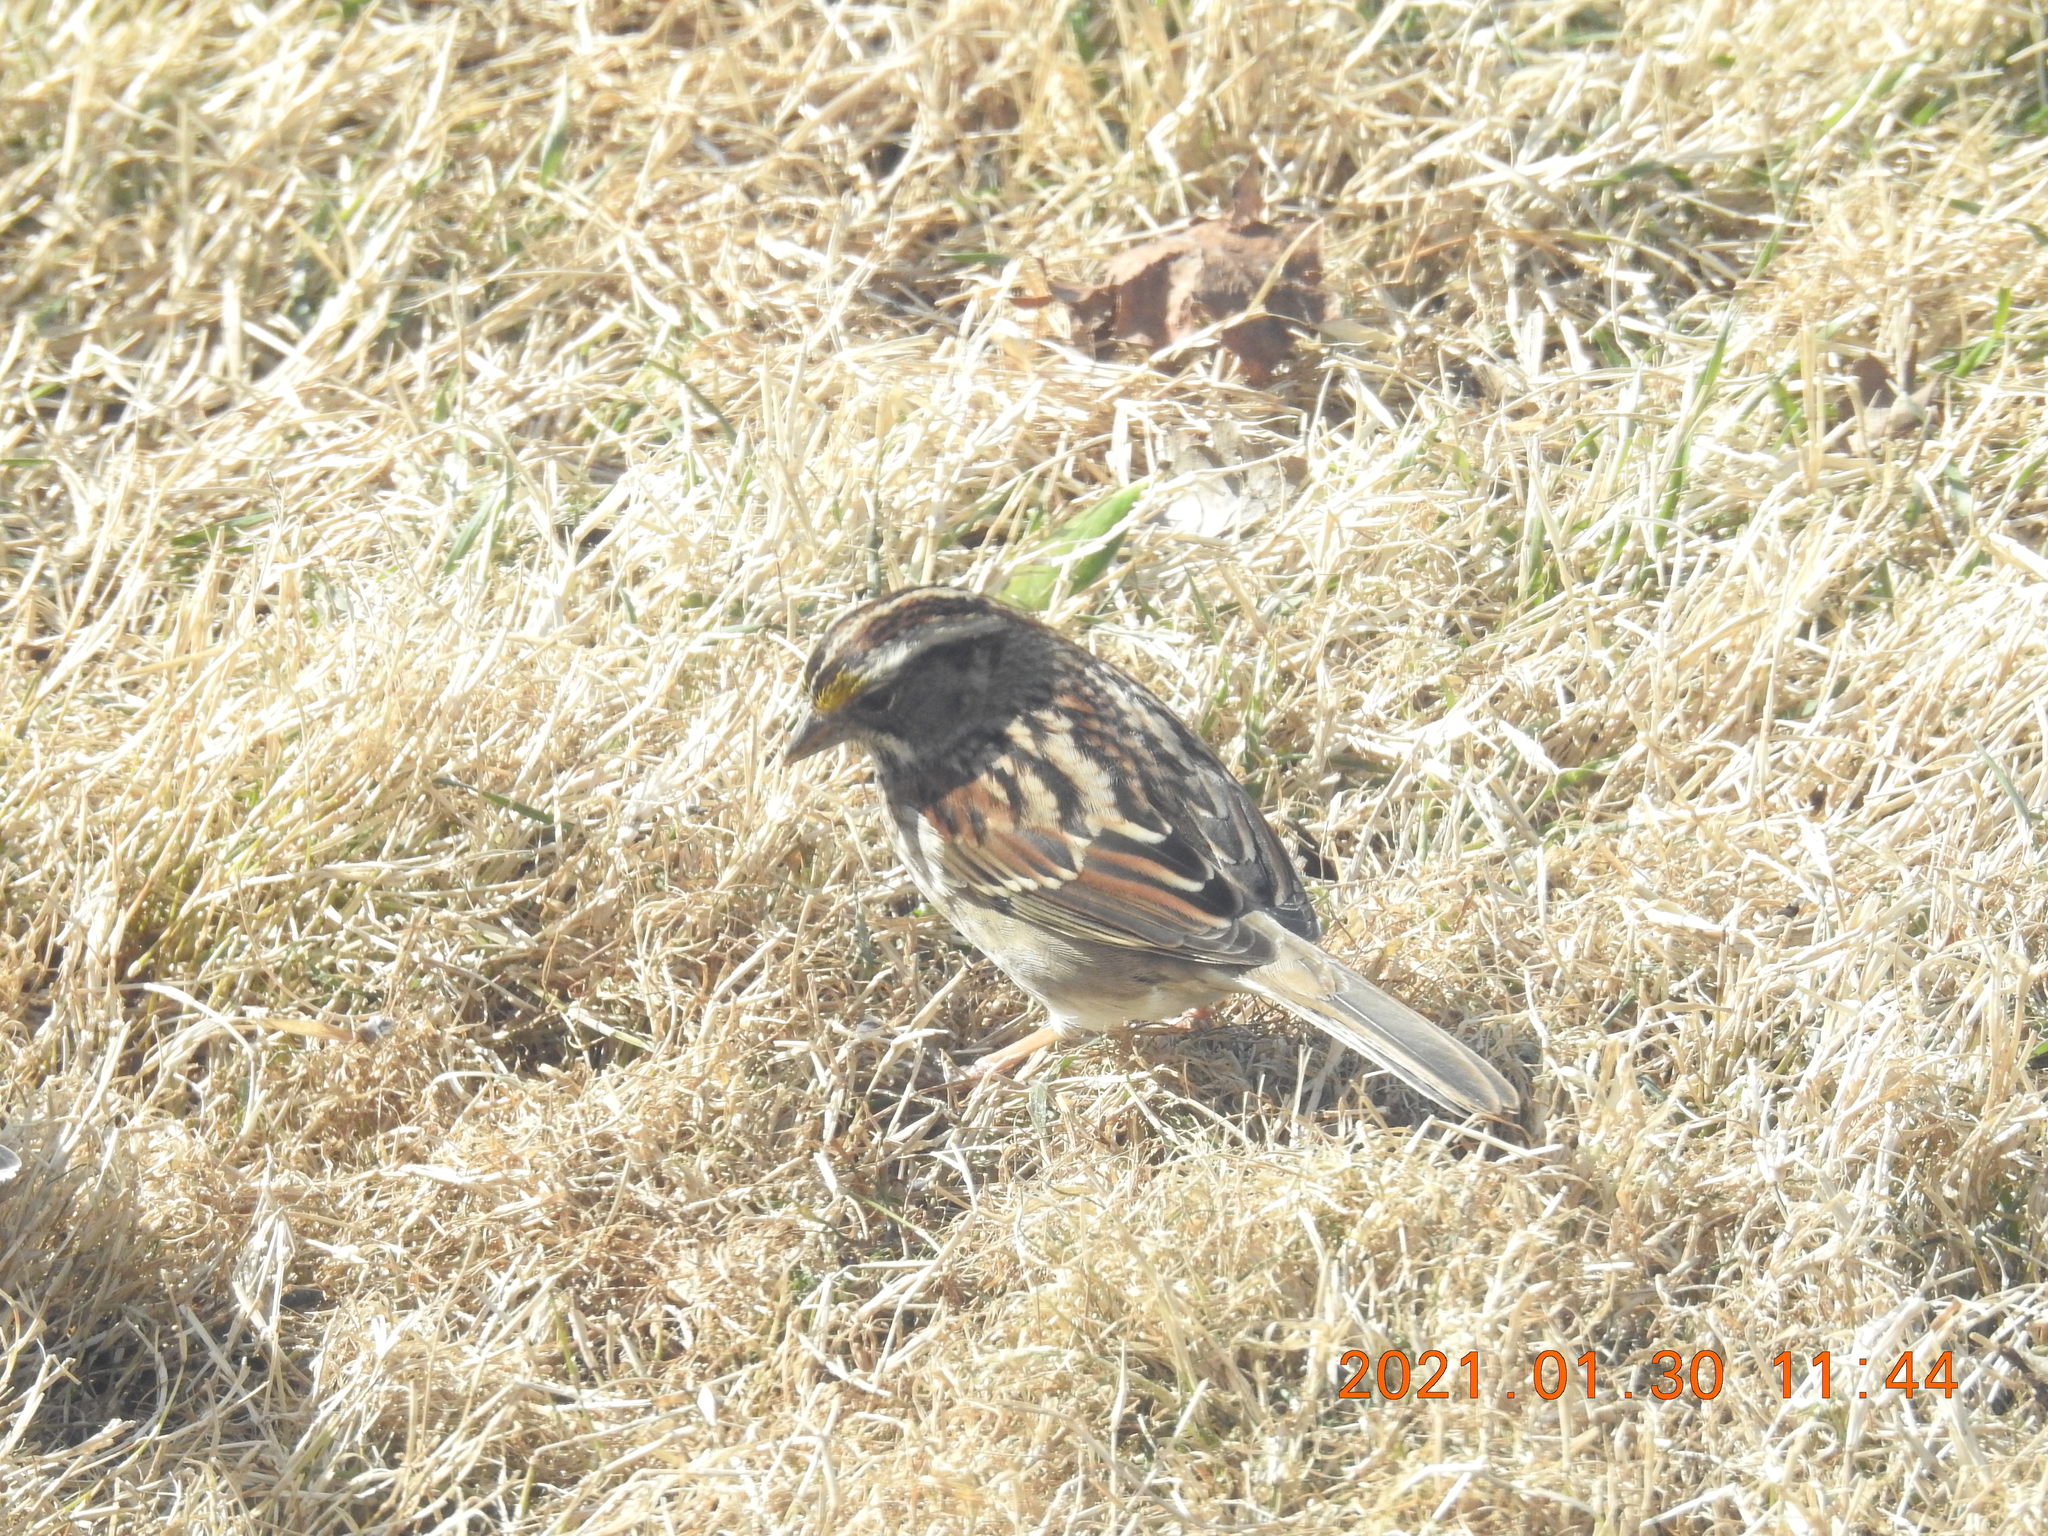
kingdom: Animalia
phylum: Chordata
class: Aves
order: Passeriformes
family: Passerellidae
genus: Zonotrichia
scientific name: Zonotrichia albicollis
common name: White-throated sparrow
